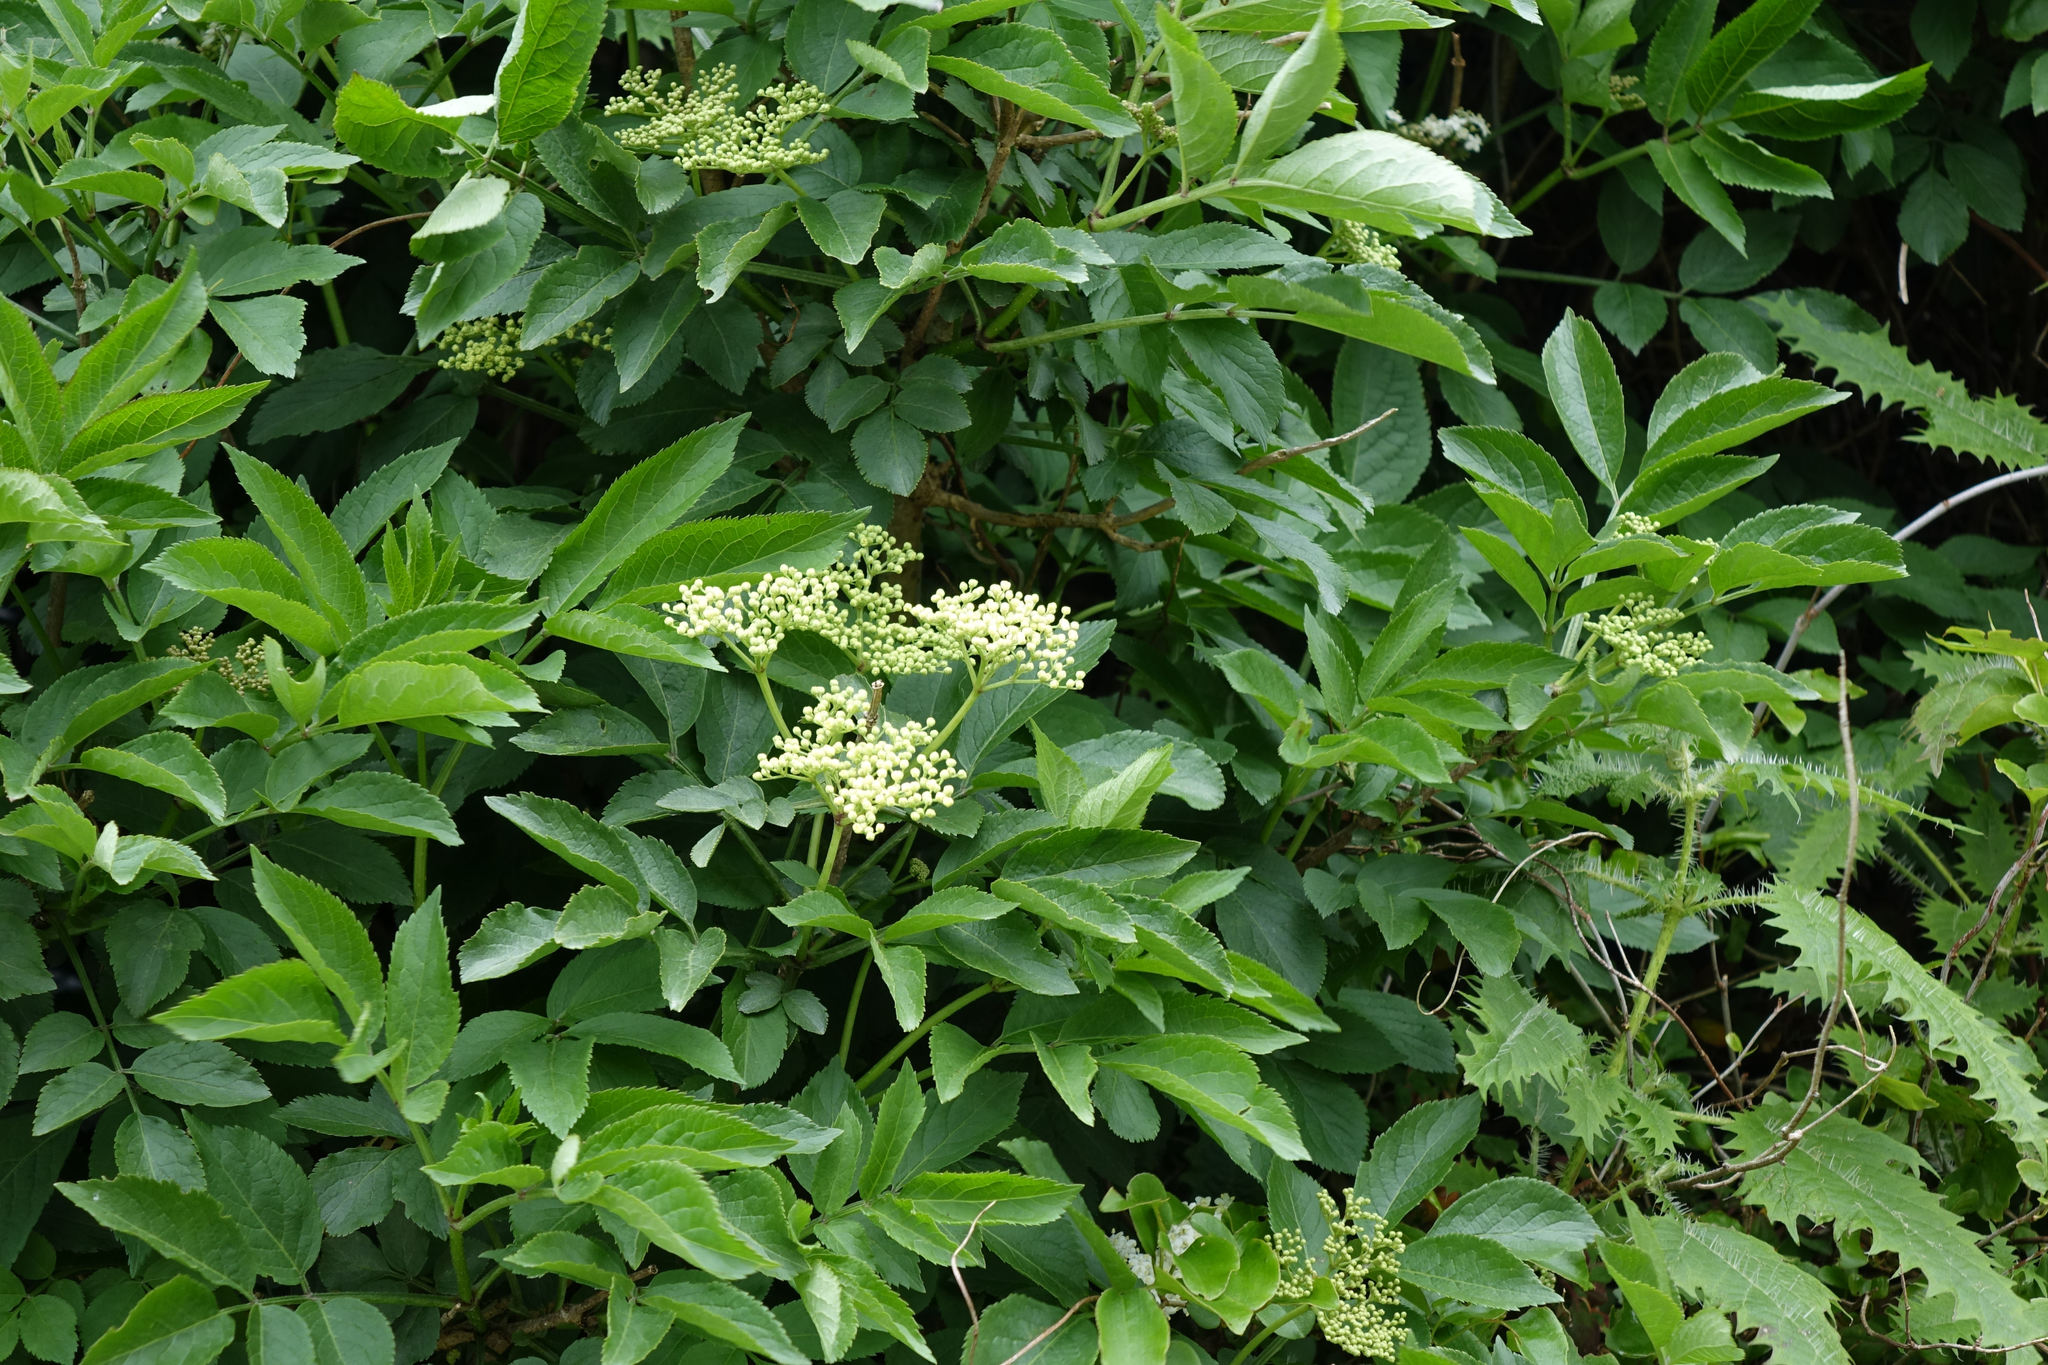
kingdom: Plantae
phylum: Tracheophyta
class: Magnoliopsida
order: Dipsacales
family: Viburnaceae
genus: Sambucus
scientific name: Sambucus nigra
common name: Elder
